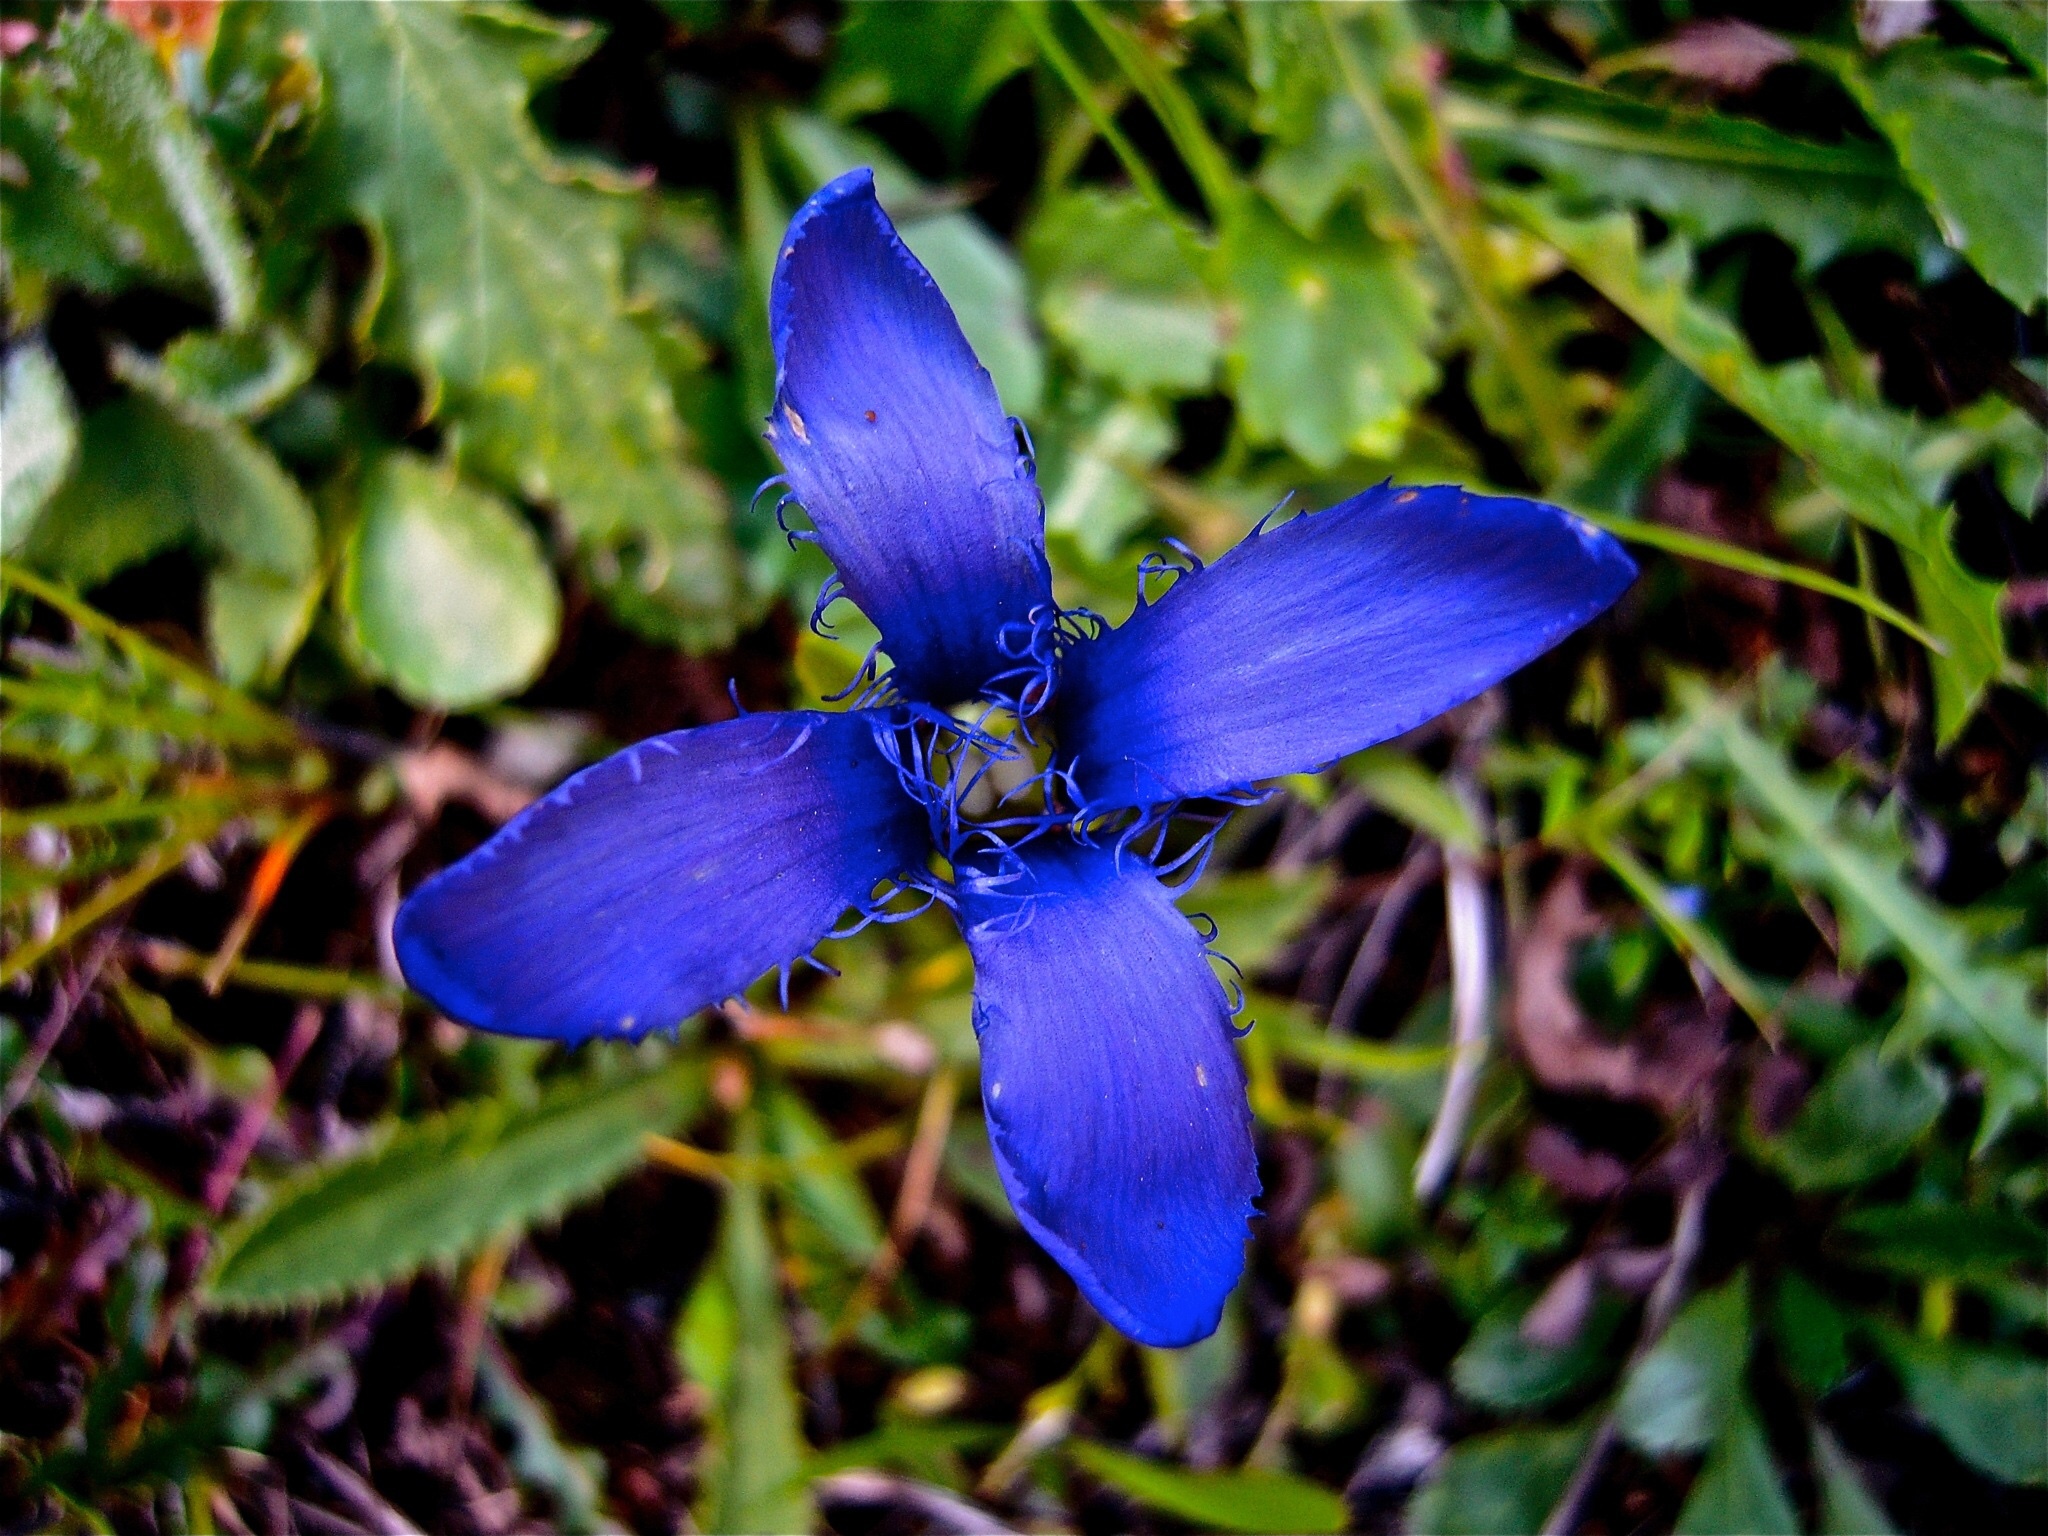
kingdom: Plantae
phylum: Tracheophyta
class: Magnoliopsida
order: Gentianales
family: Gentianaceae
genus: Gentianopsis
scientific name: Gentianopsis ciliata
